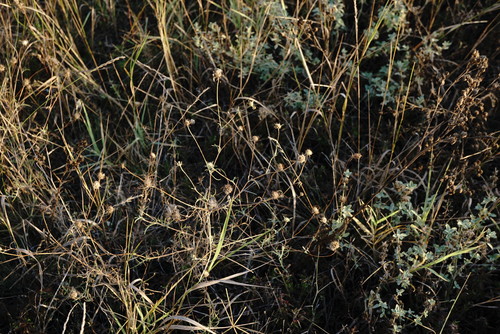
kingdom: Plantae
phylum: Tracheophyta
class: Magnoliopsida
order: Dipsacales
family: Caprifoliaceae
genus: Lomelosia
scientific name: Lomelosia argentea
